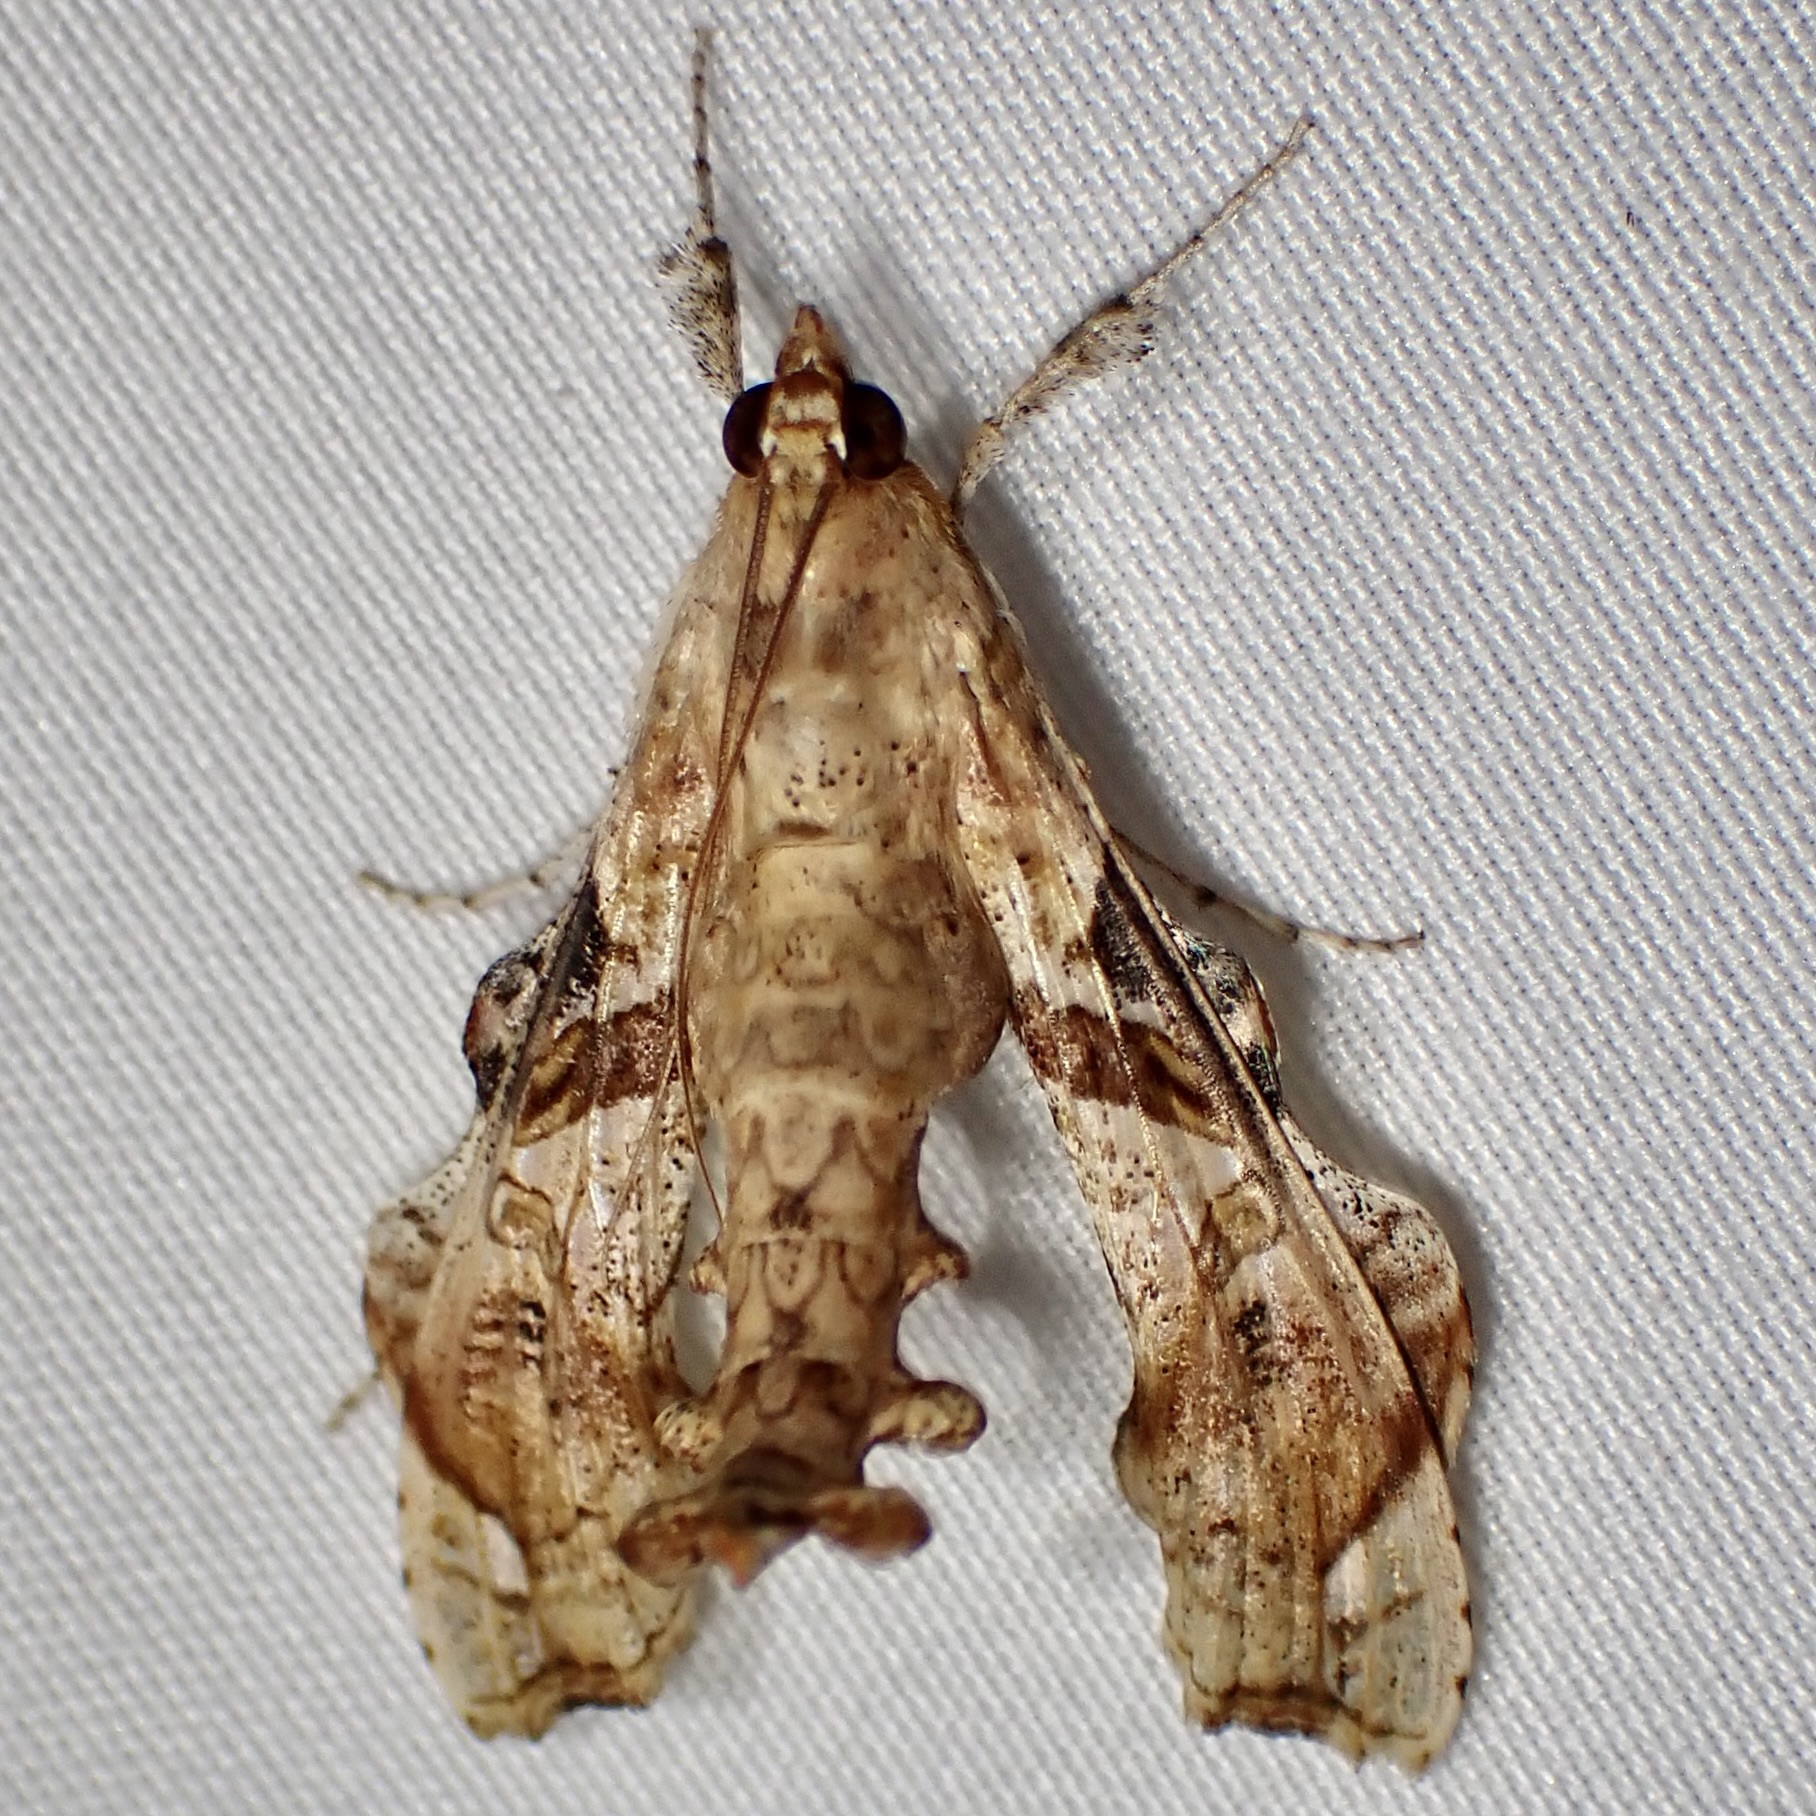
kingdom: Animalia
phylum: Arthropoda
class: Insecta
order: Lepidoptera
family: Crambidae
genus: Terastia
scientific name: Terastia meticulosalis
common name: Moth
